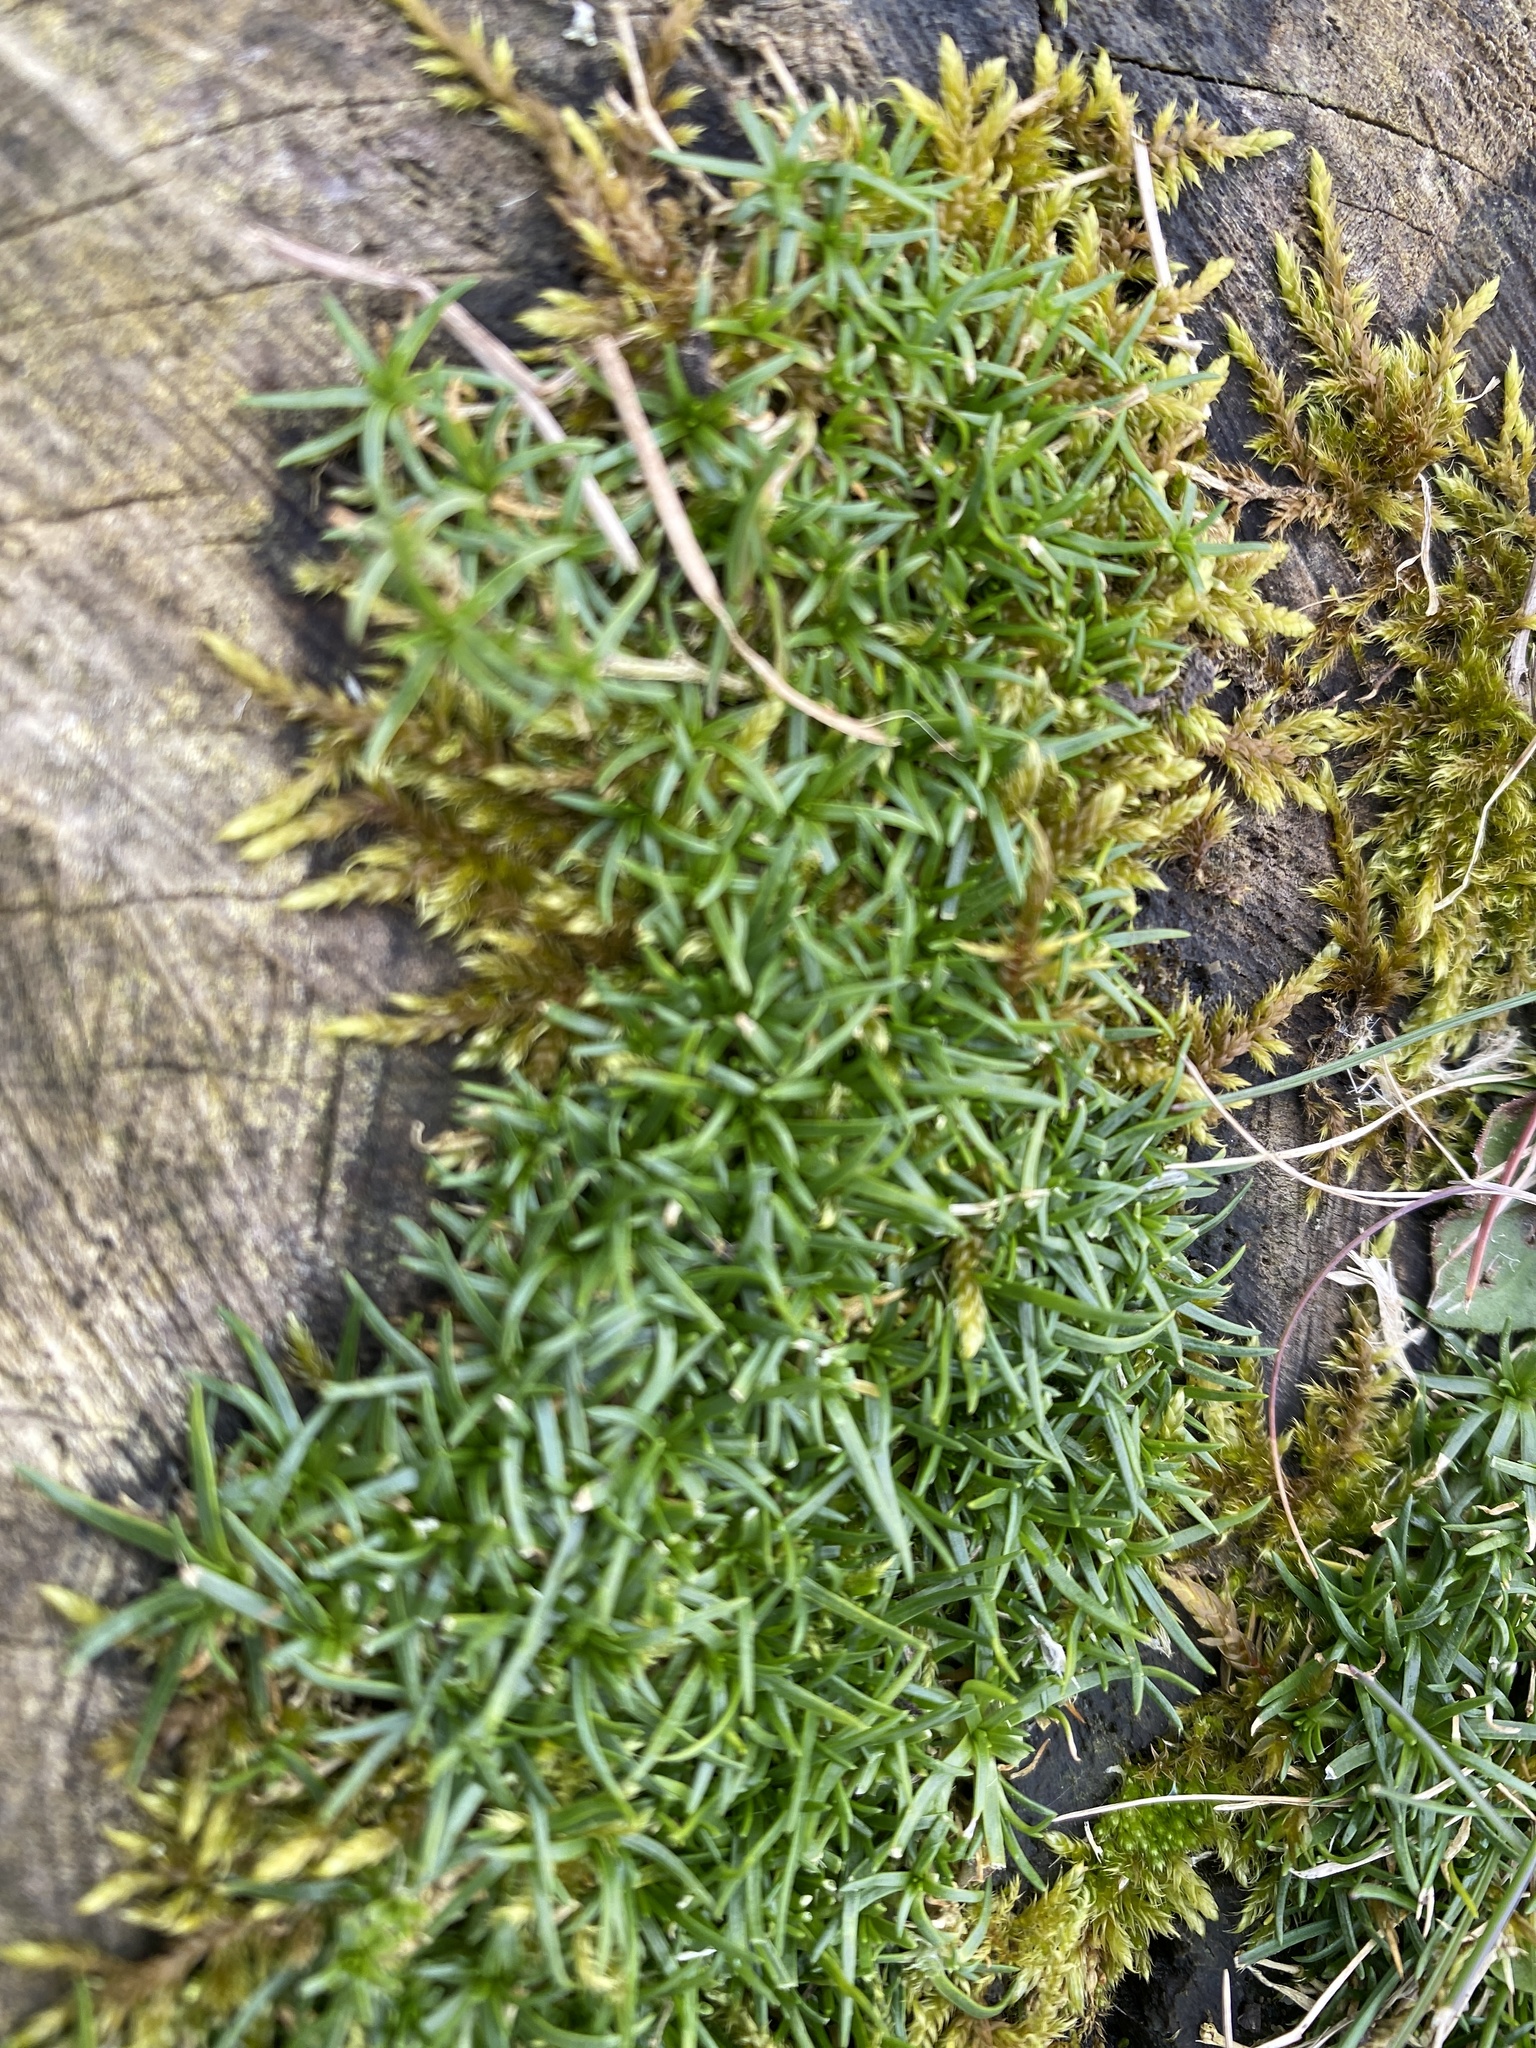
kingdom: Plantae
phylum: Tracheophyta
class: Magnoliopsida
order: Caryophyllales
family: Caryophyllaceae
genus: Sagina
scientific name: Sagina procumbens
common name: Procumbent pearlwort
